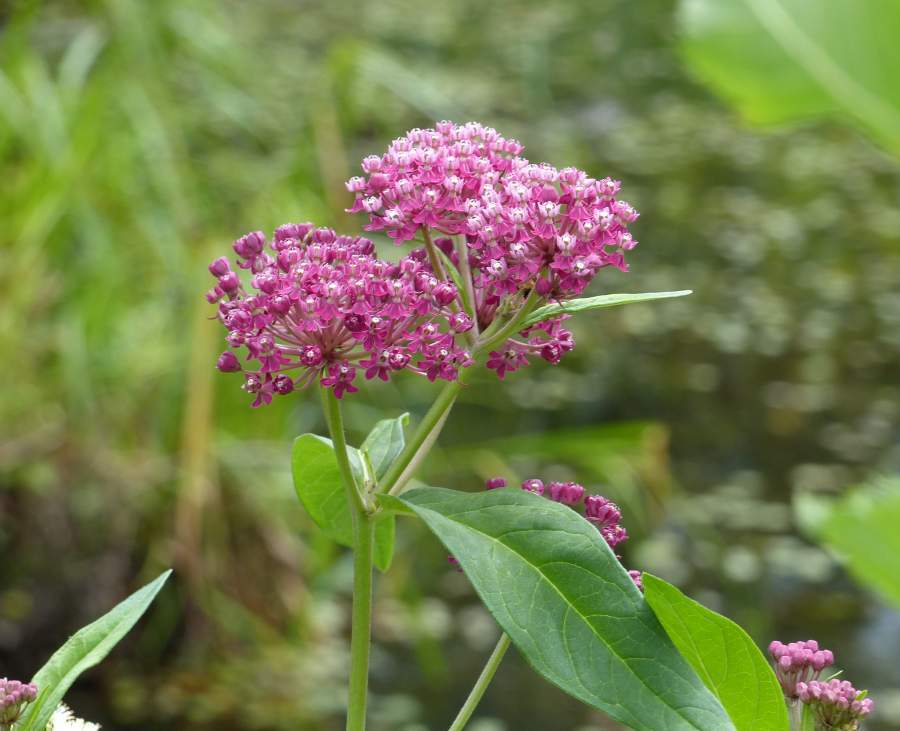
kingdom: Plantae
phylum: Tracheophyta
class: Magnoliopsida
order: Gentianales
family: Apocynaceae
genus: Asclepias
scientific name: Asclepias incarnata
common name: Swamp milkweed
